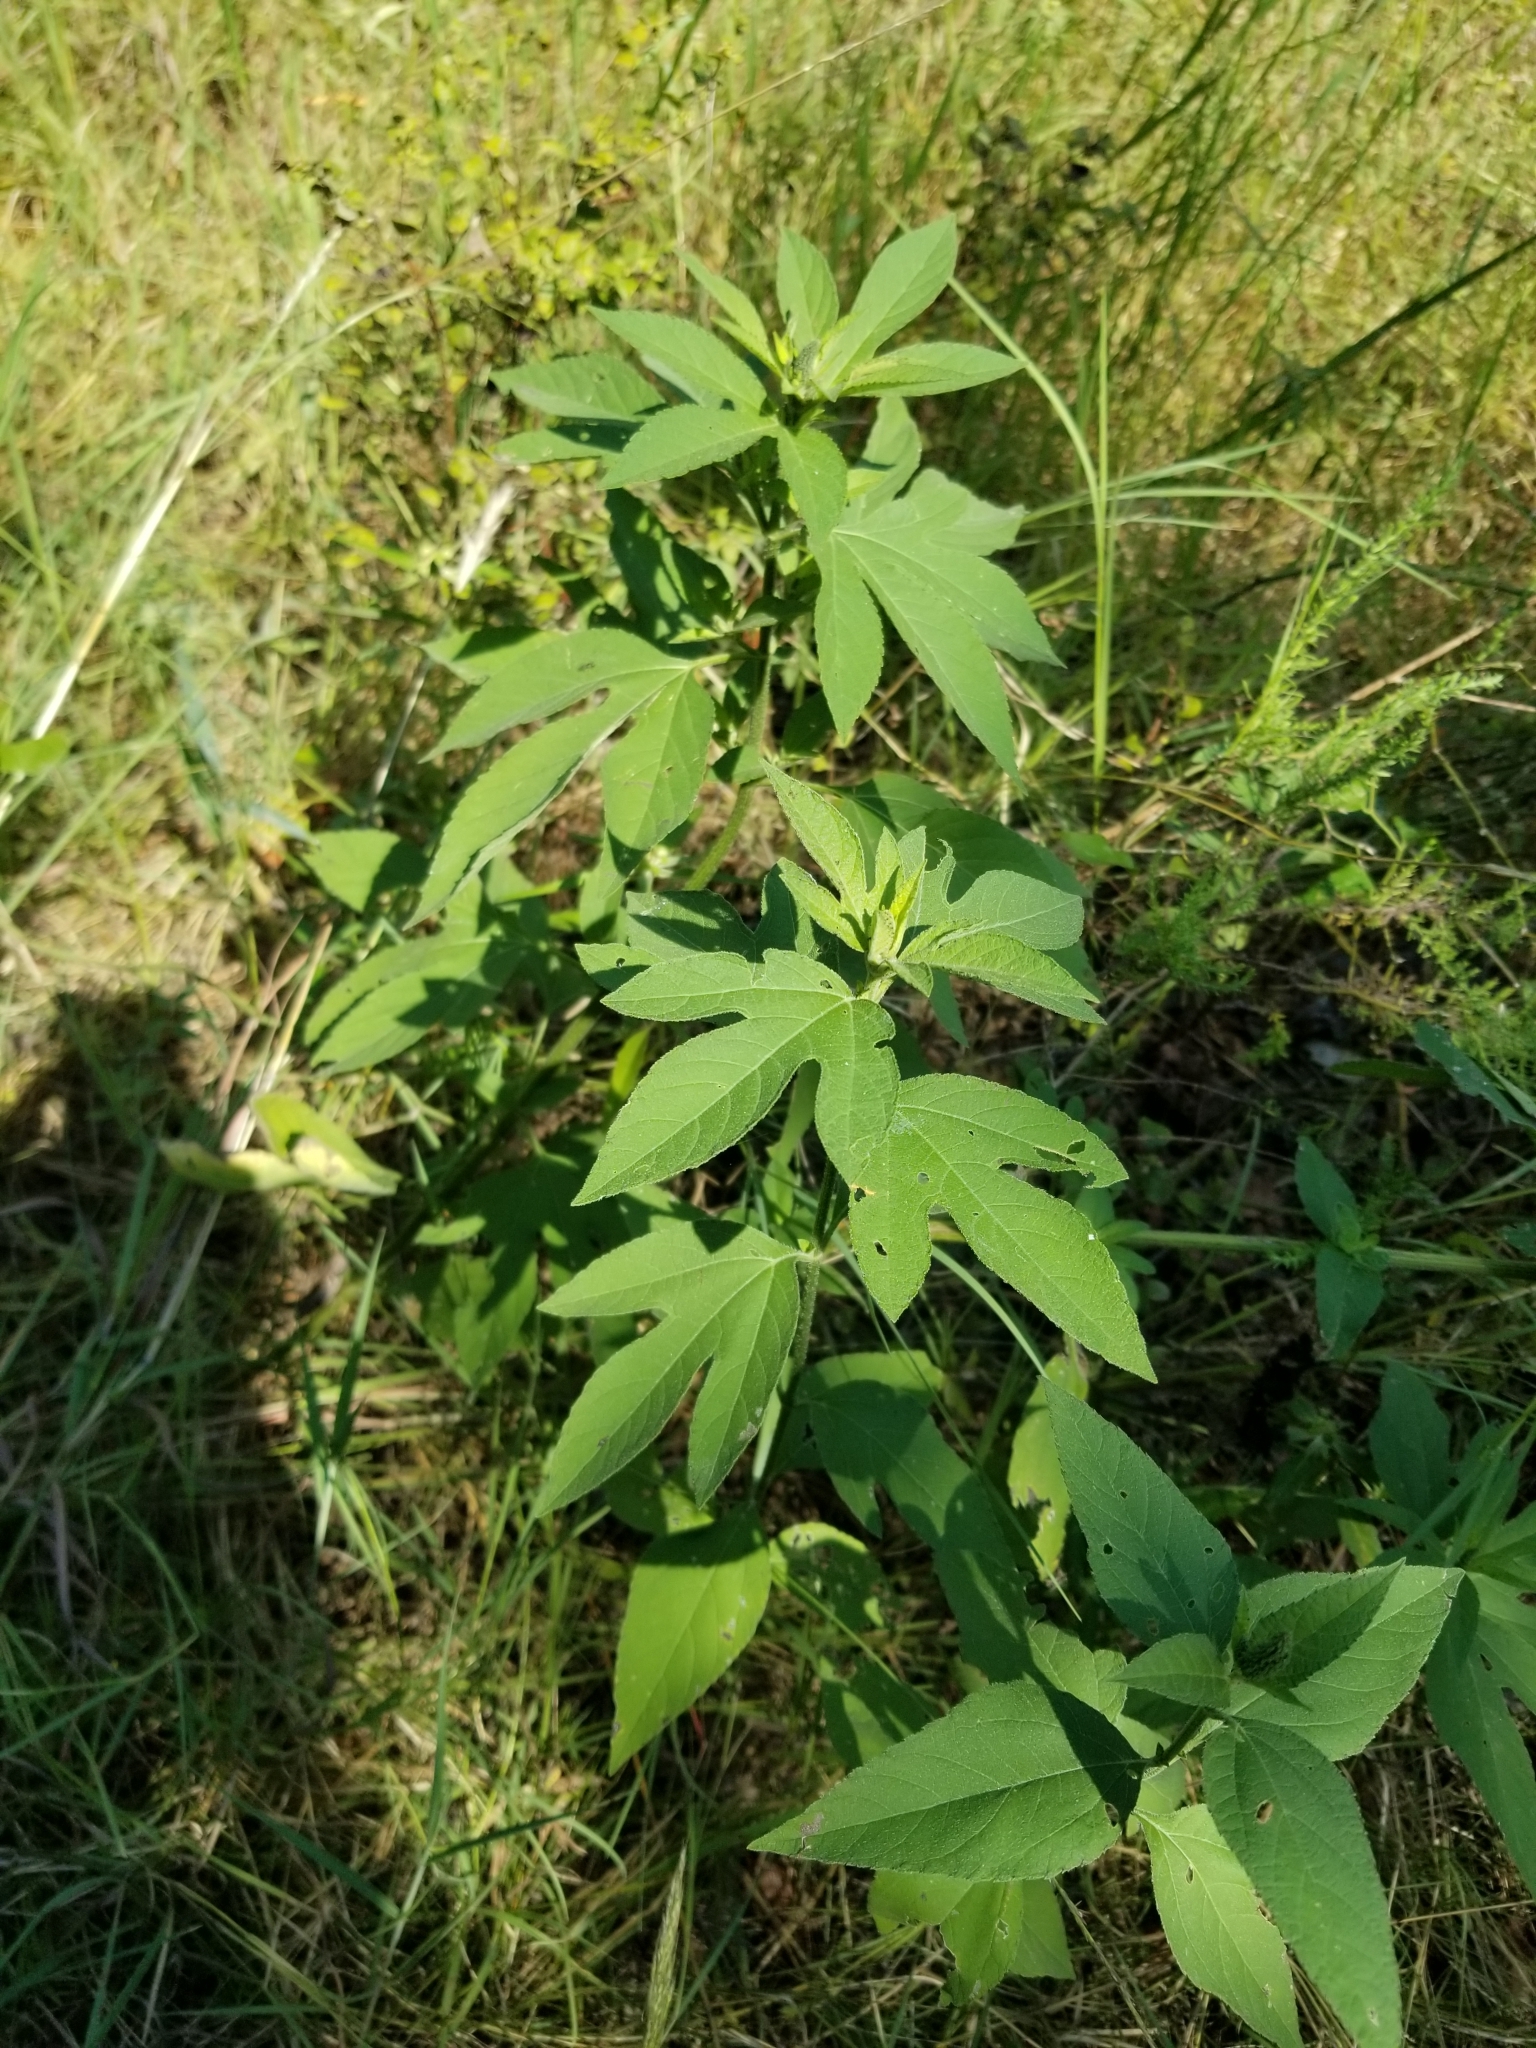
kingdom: Plantae
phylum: Tracheophyta
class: Magnoliopsida
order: Asterales
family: Asteraceae
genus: Ambrosia
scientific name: Ambrosia trifida
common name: Giant ragweed
